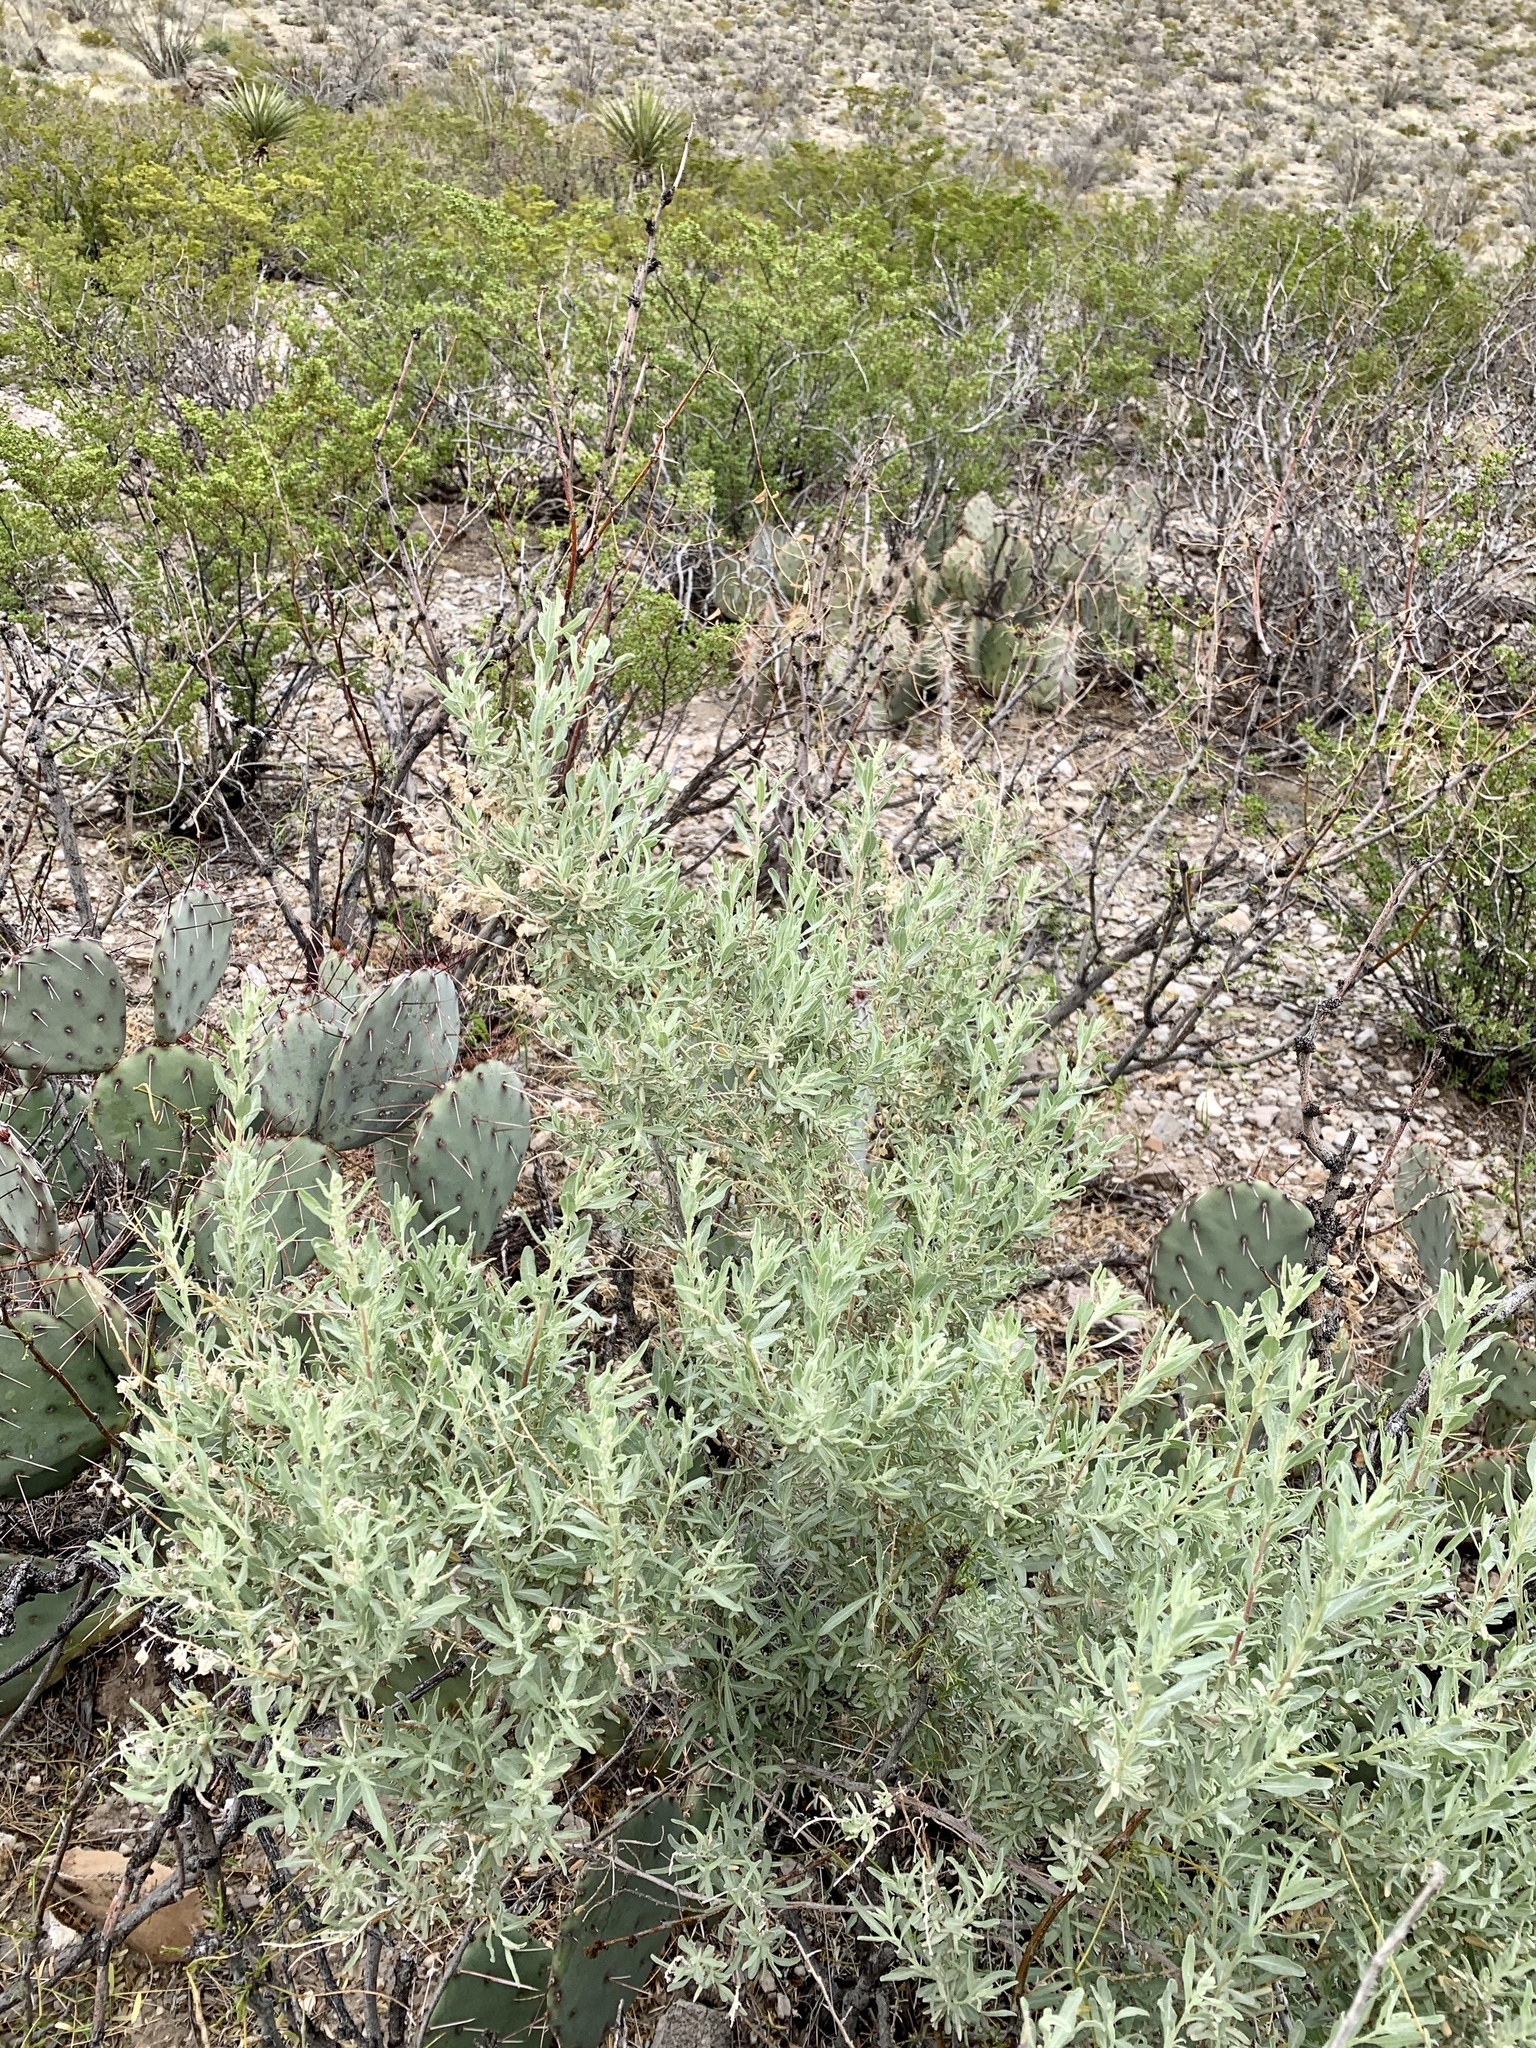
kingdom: Plantae
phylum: Tracheophyta
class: Magnoliopsida
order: Caryophyllales
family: Amaranthaceae
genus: Atriplex
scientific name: Atriplex canescens
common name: Four-wing saltbush
